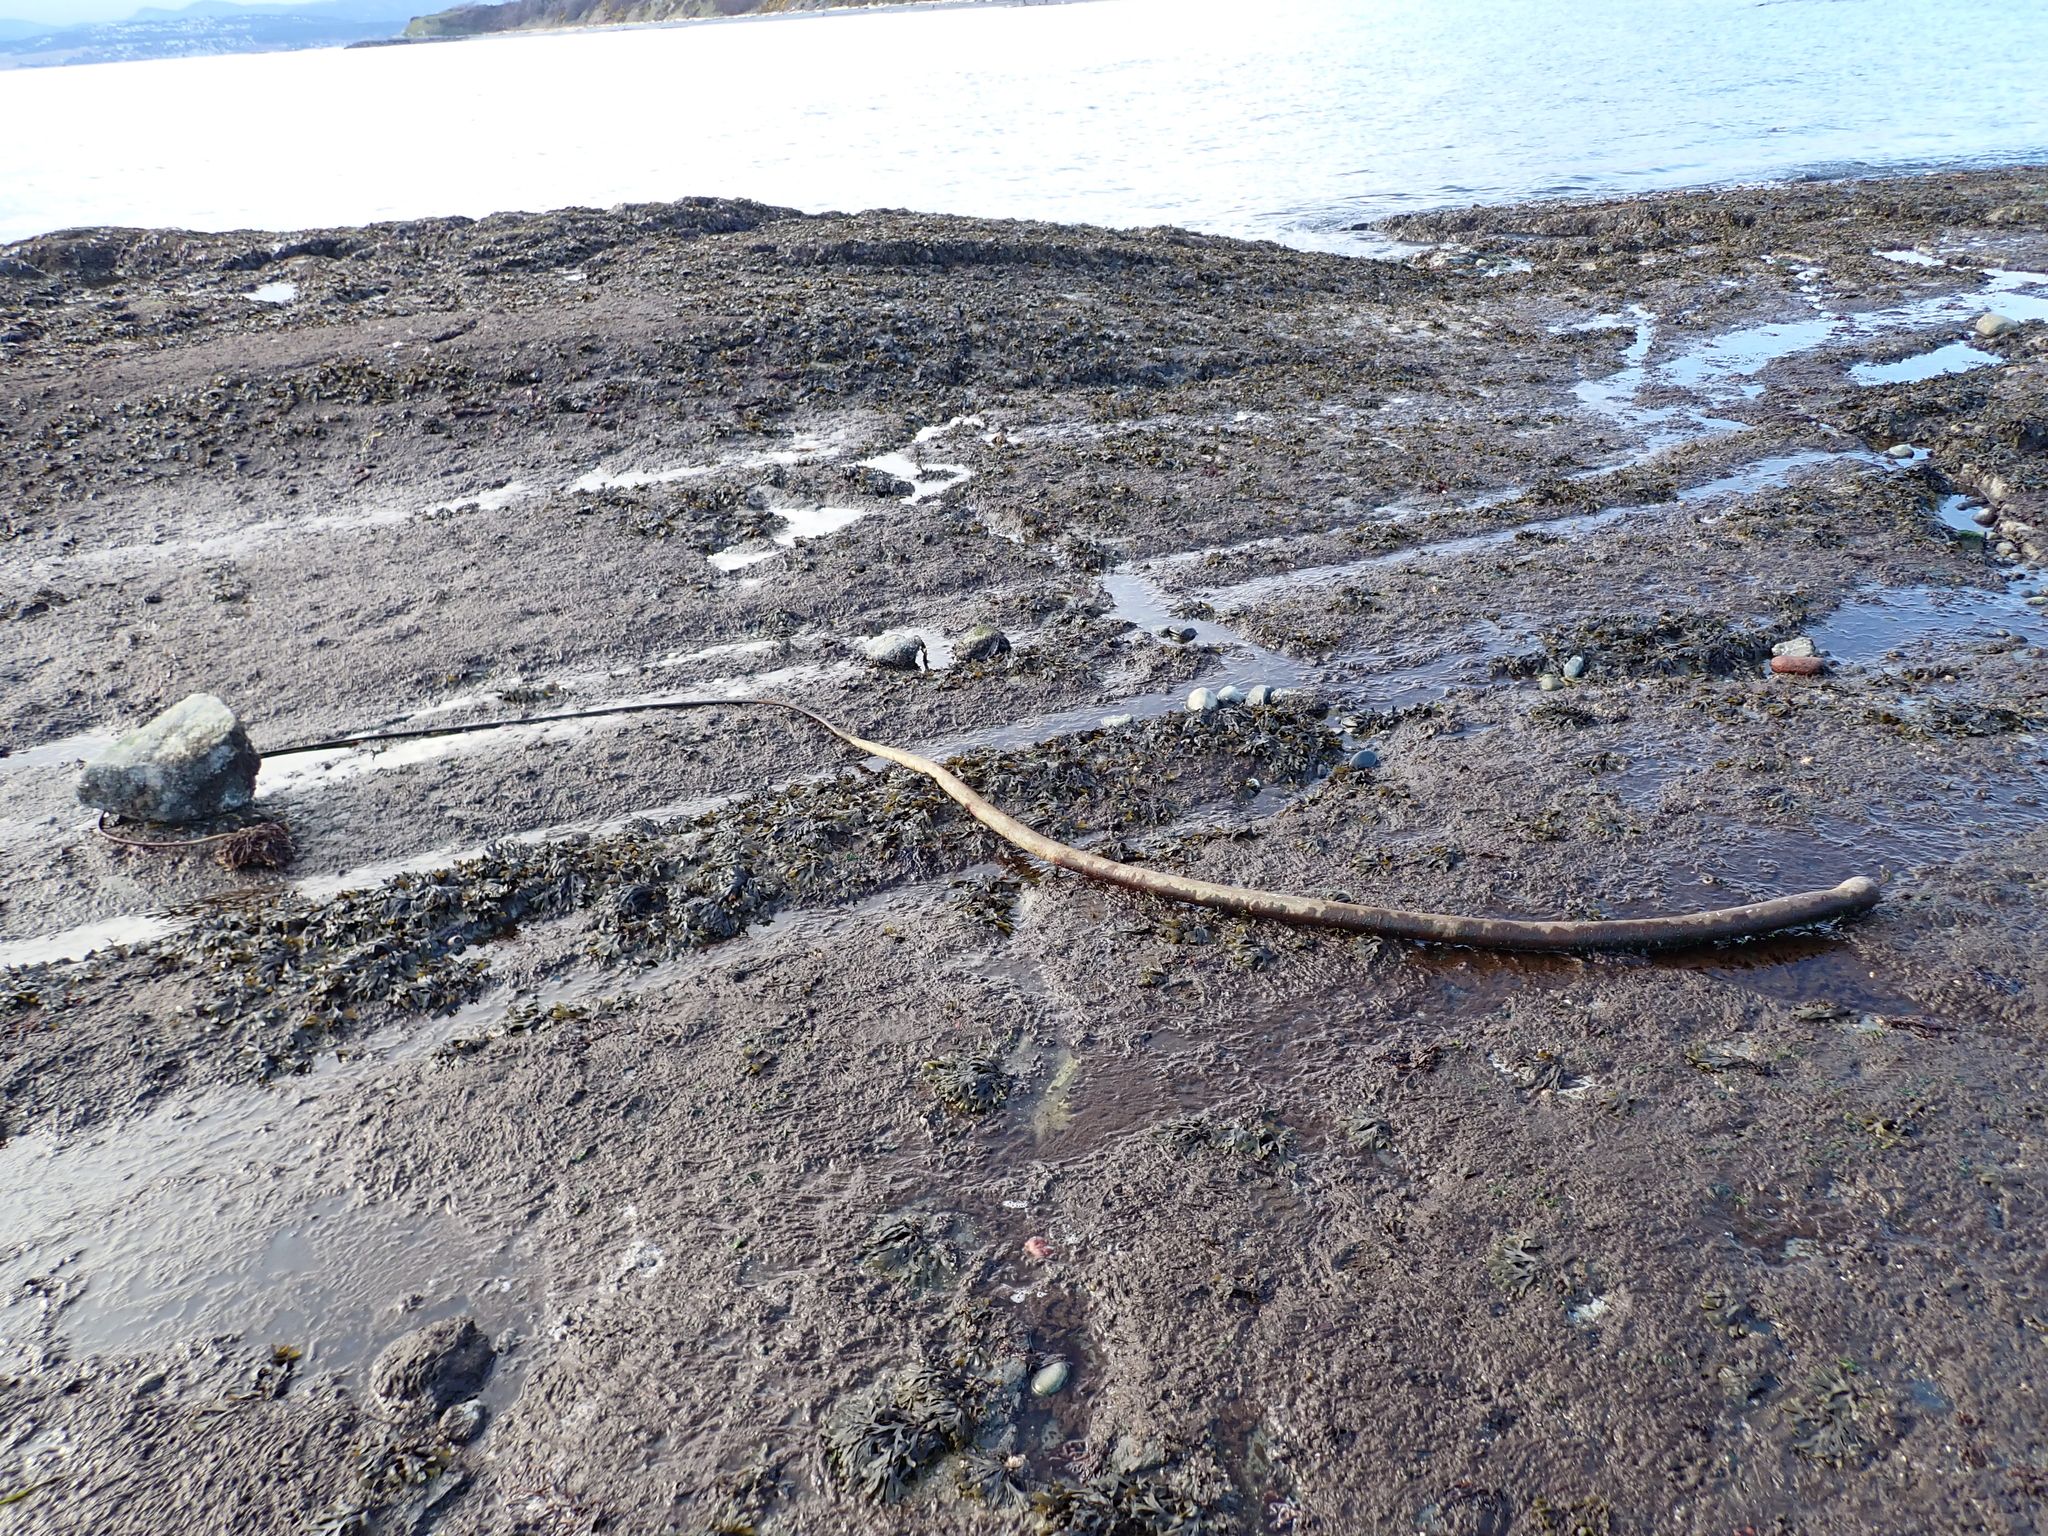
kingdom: Chromista
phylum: Ochrophyta
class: Phaeophyceae
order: Laminariales
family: Laminariaceae
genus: Nereocystis
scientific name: Nereocystis luetkeana
